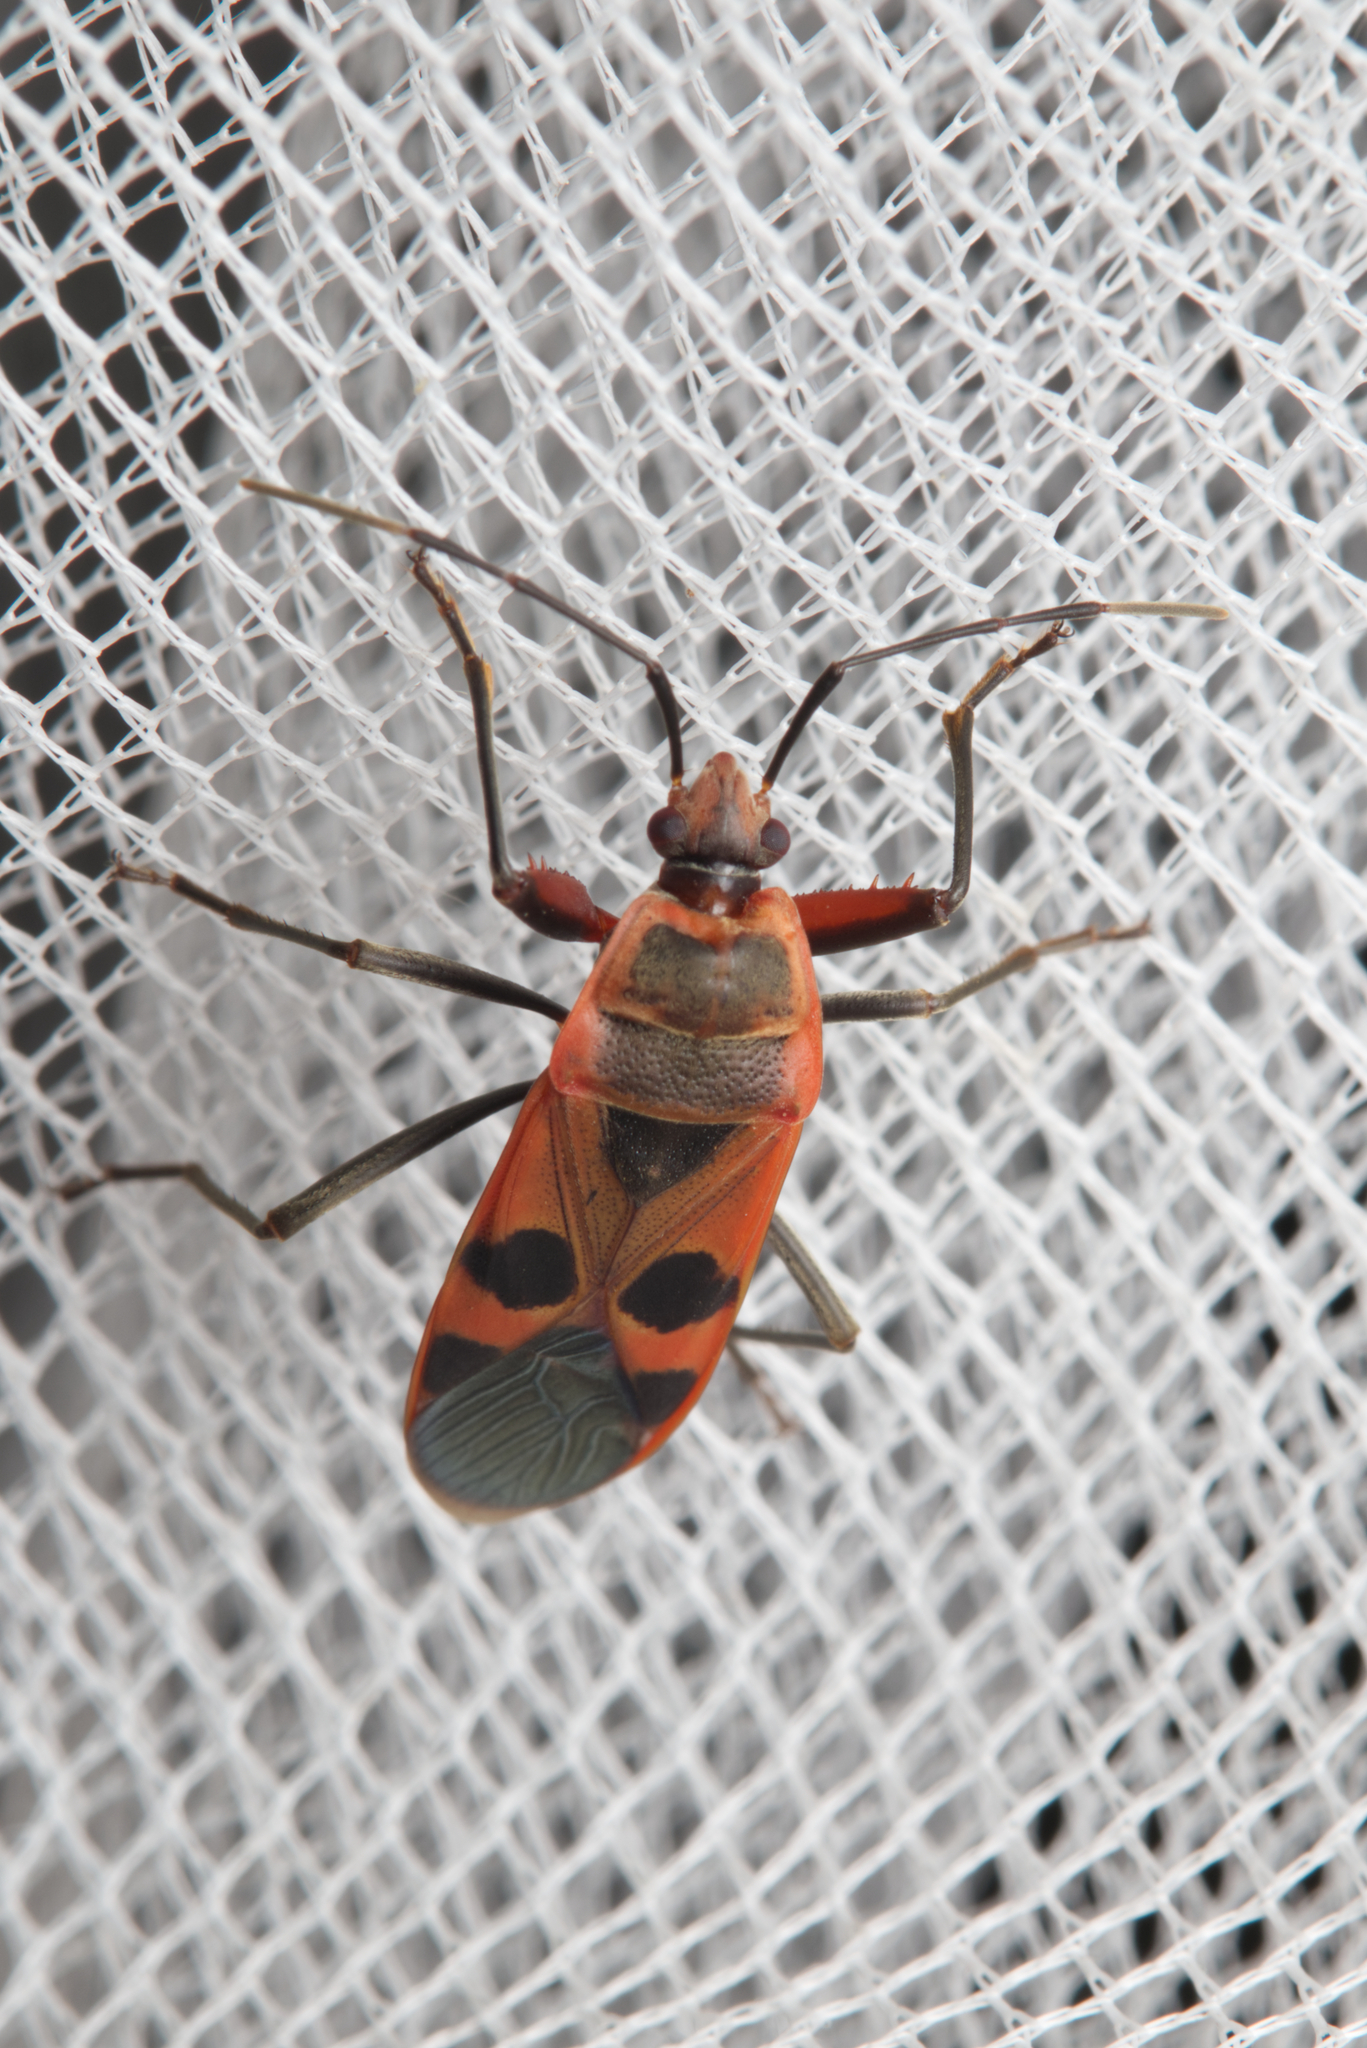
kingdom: Animalia
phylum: Arthropoda
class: Insecta
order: Hemiptera
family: Largidae
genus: Physopelta
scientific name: Physopelta gutta
